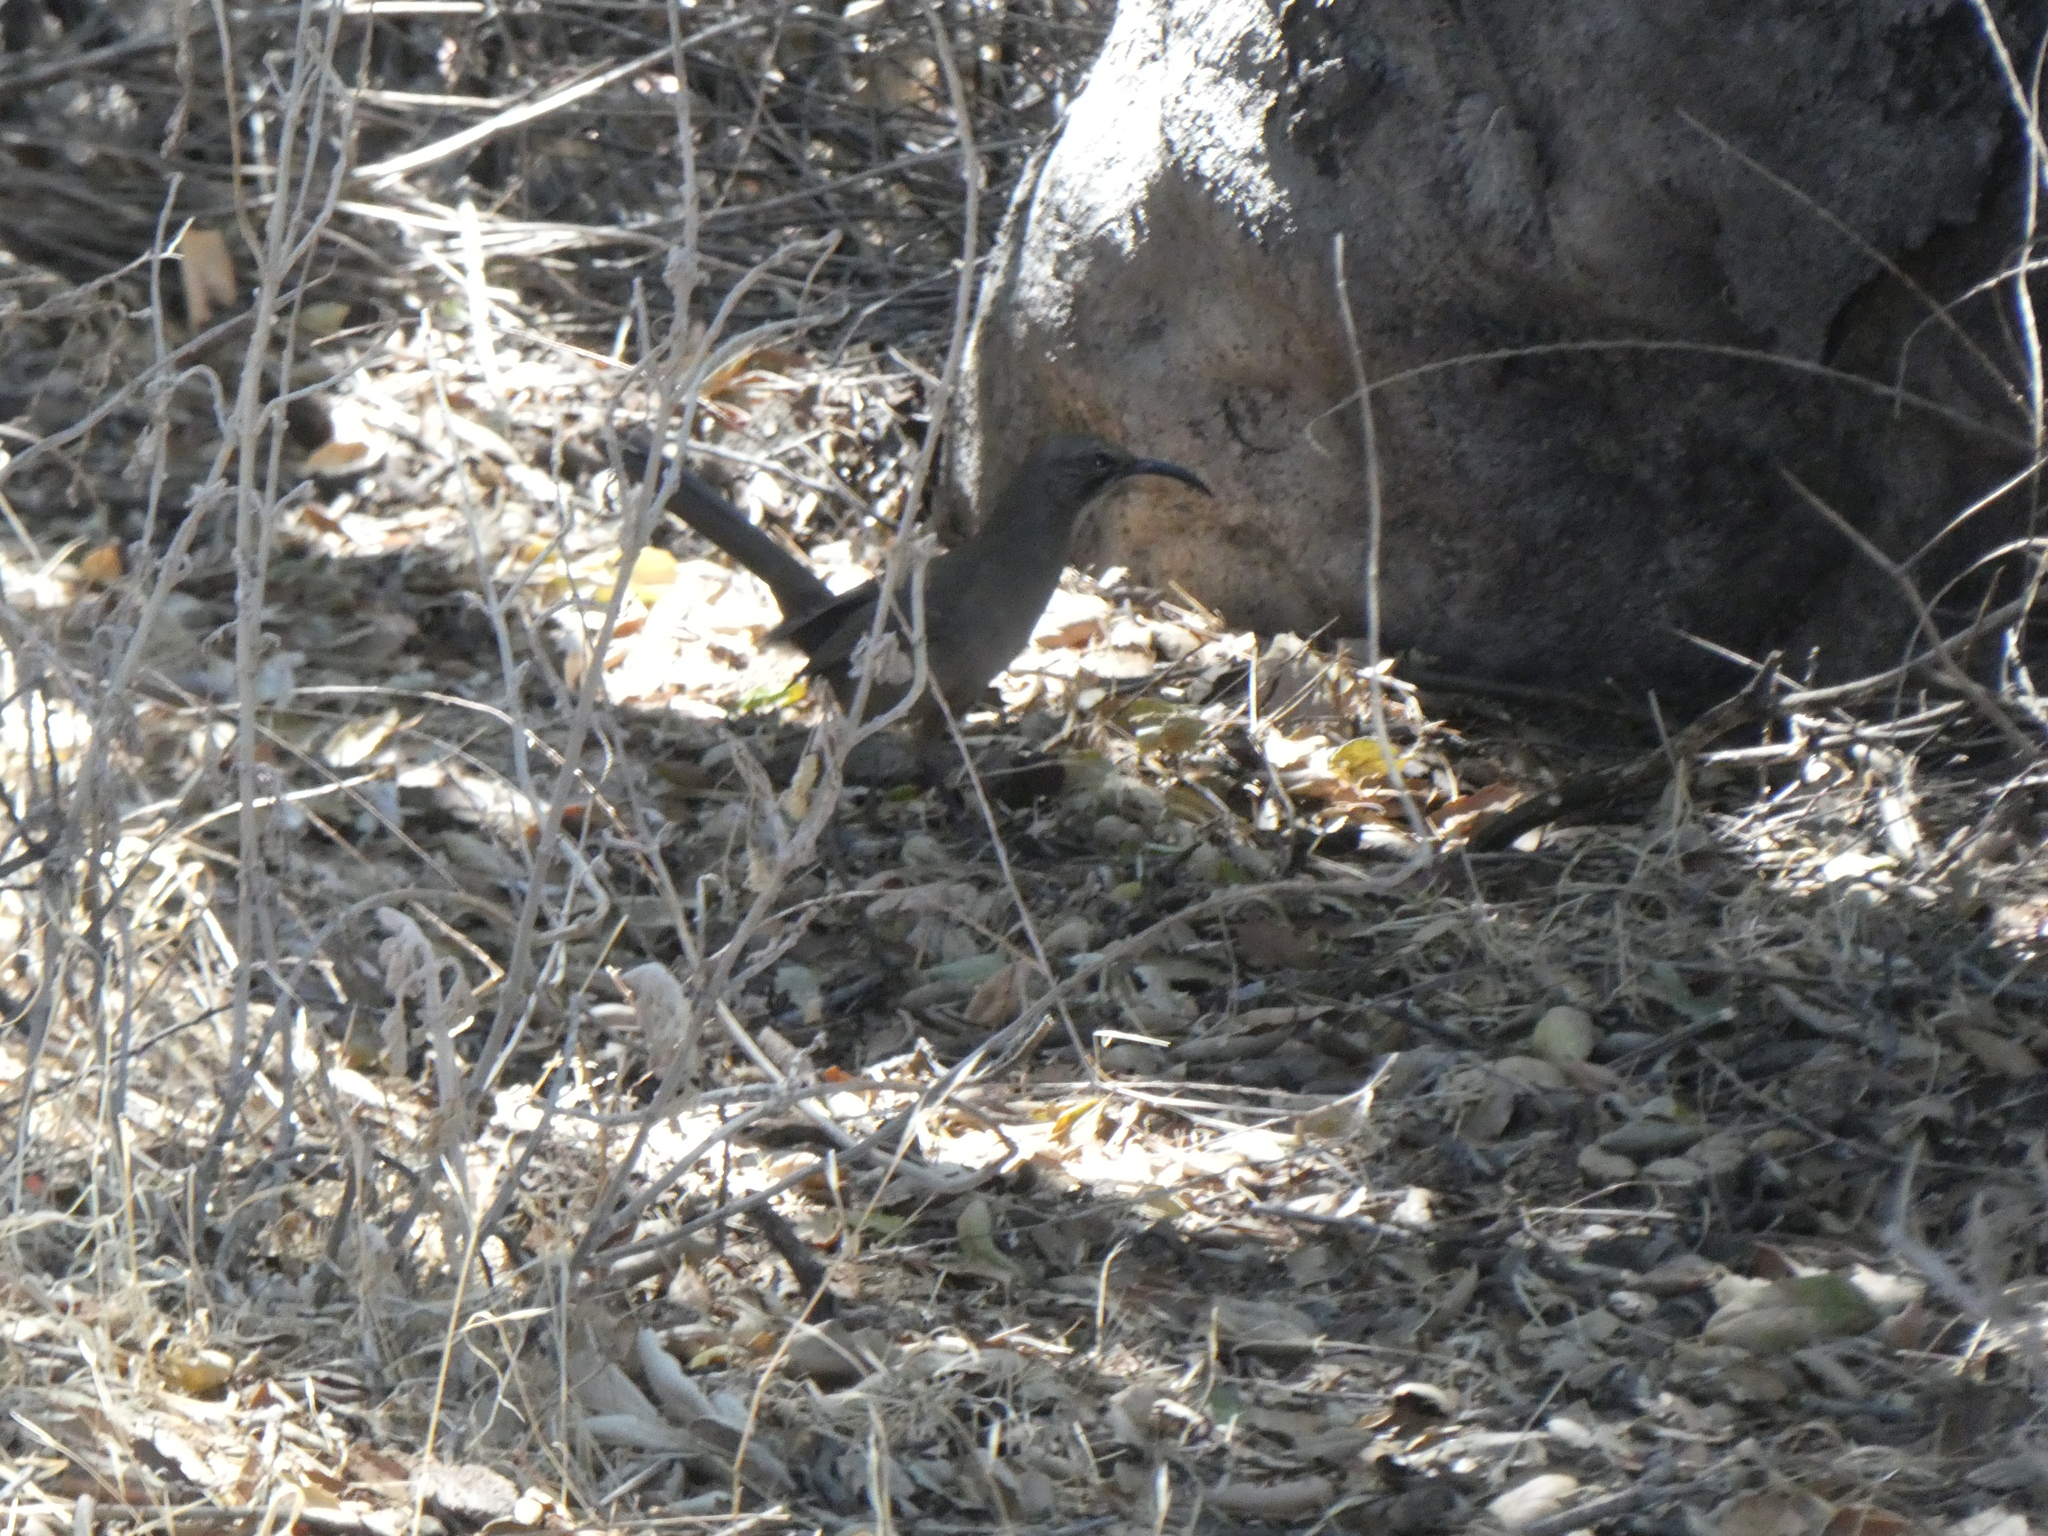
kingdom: Animalia
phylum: Chordata
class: Aves
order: Passeriformes
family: Mimidae
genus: Toxostoma
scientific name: Toxostoma redivivum
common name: California thrasher
